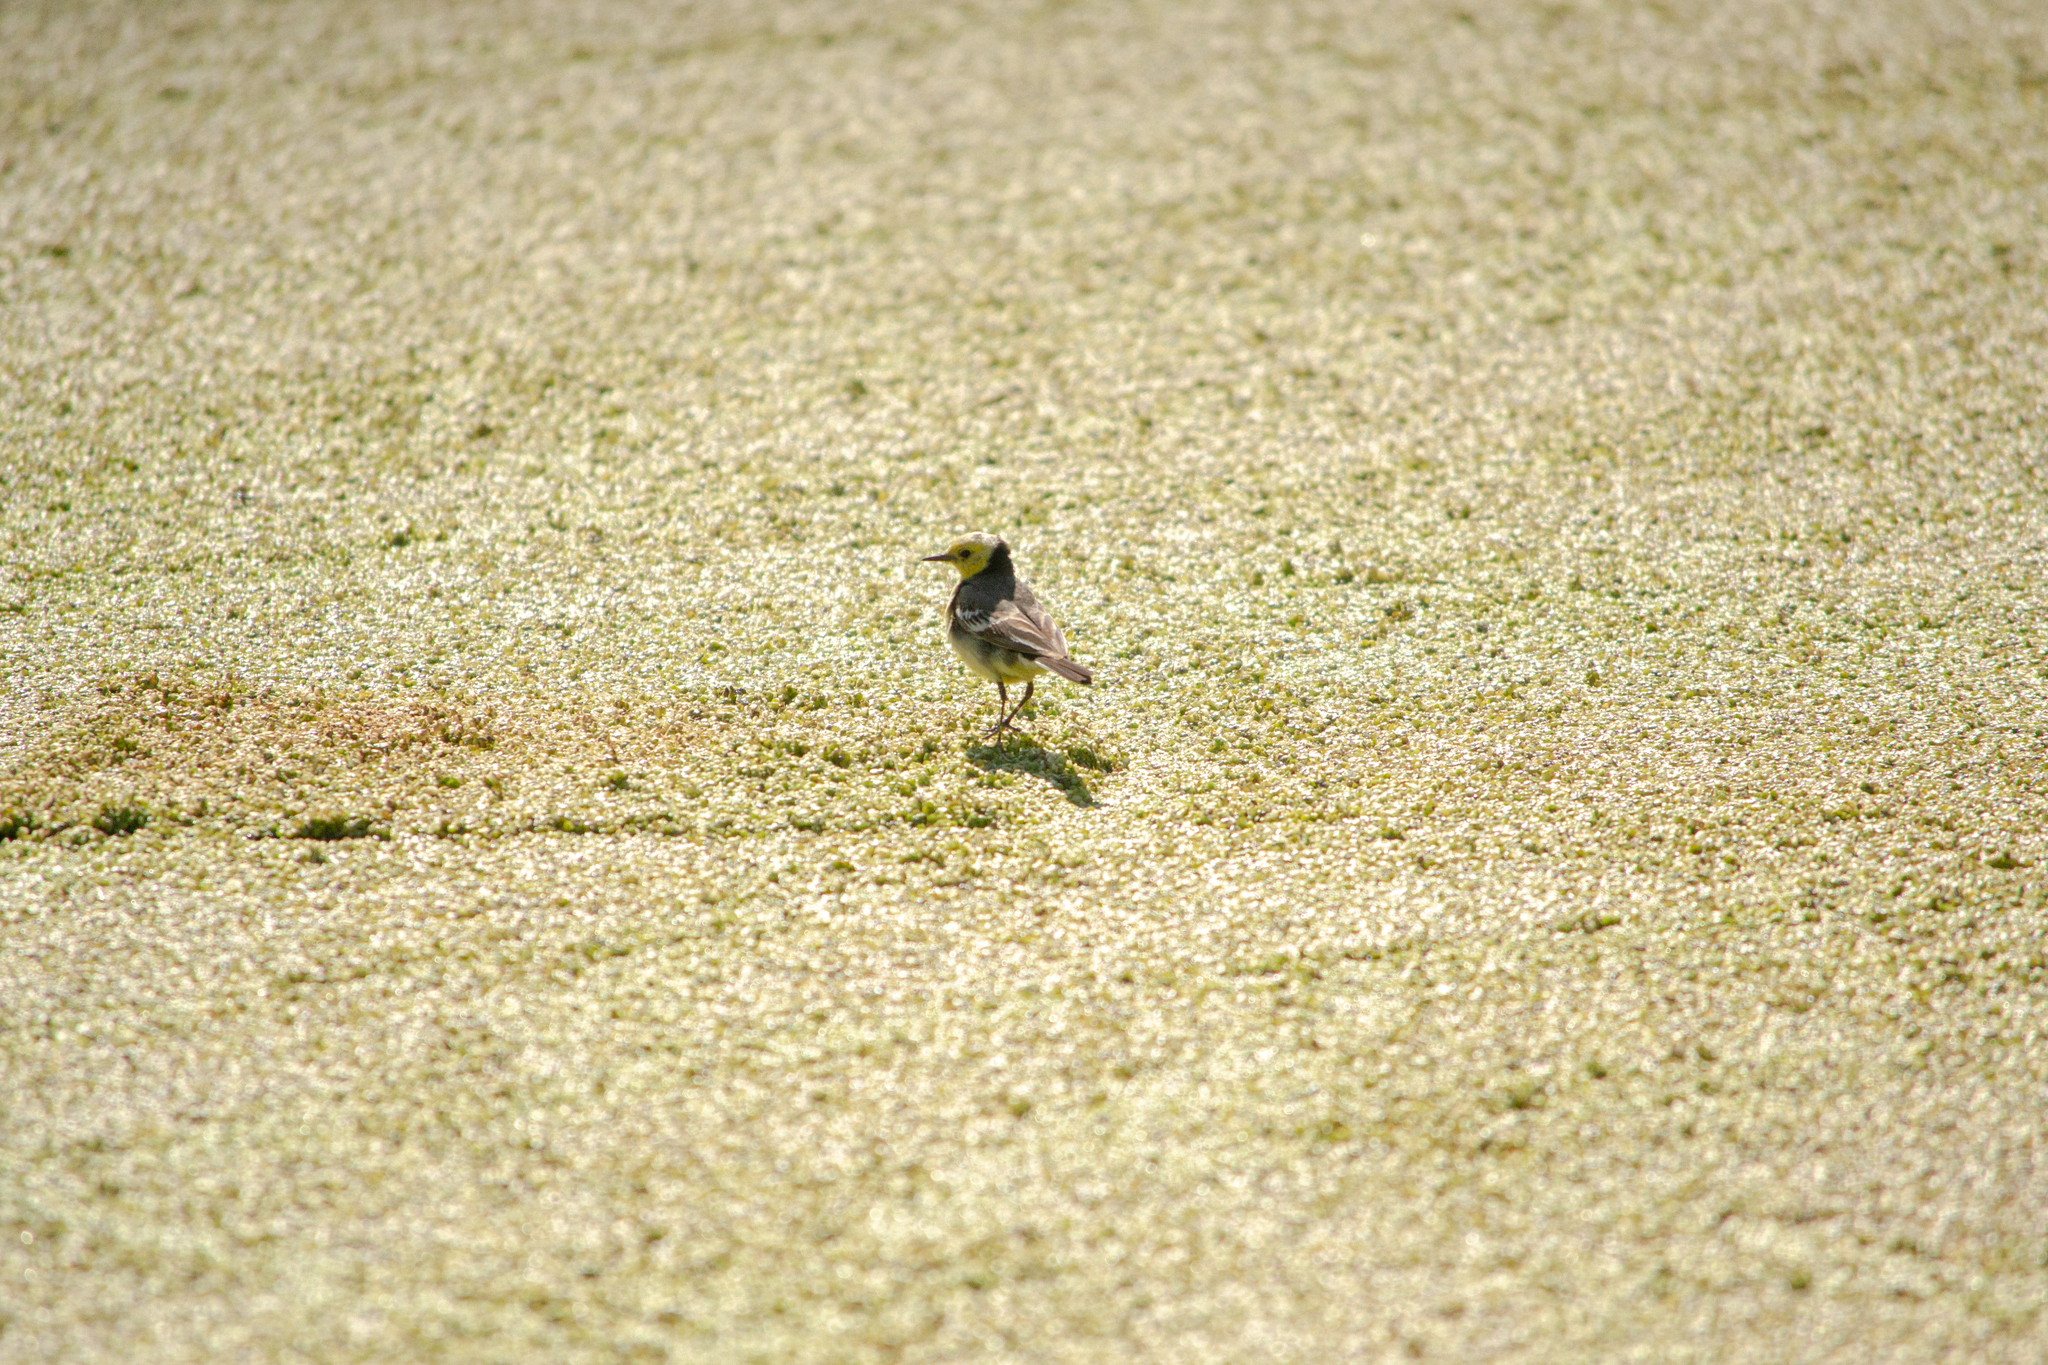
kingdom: Animalia
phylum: Chordata
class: Aves
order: Passeriformes
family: Motacillidae
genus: Motacilla
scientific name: Motacilla citreola
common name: Citrine wagtail
